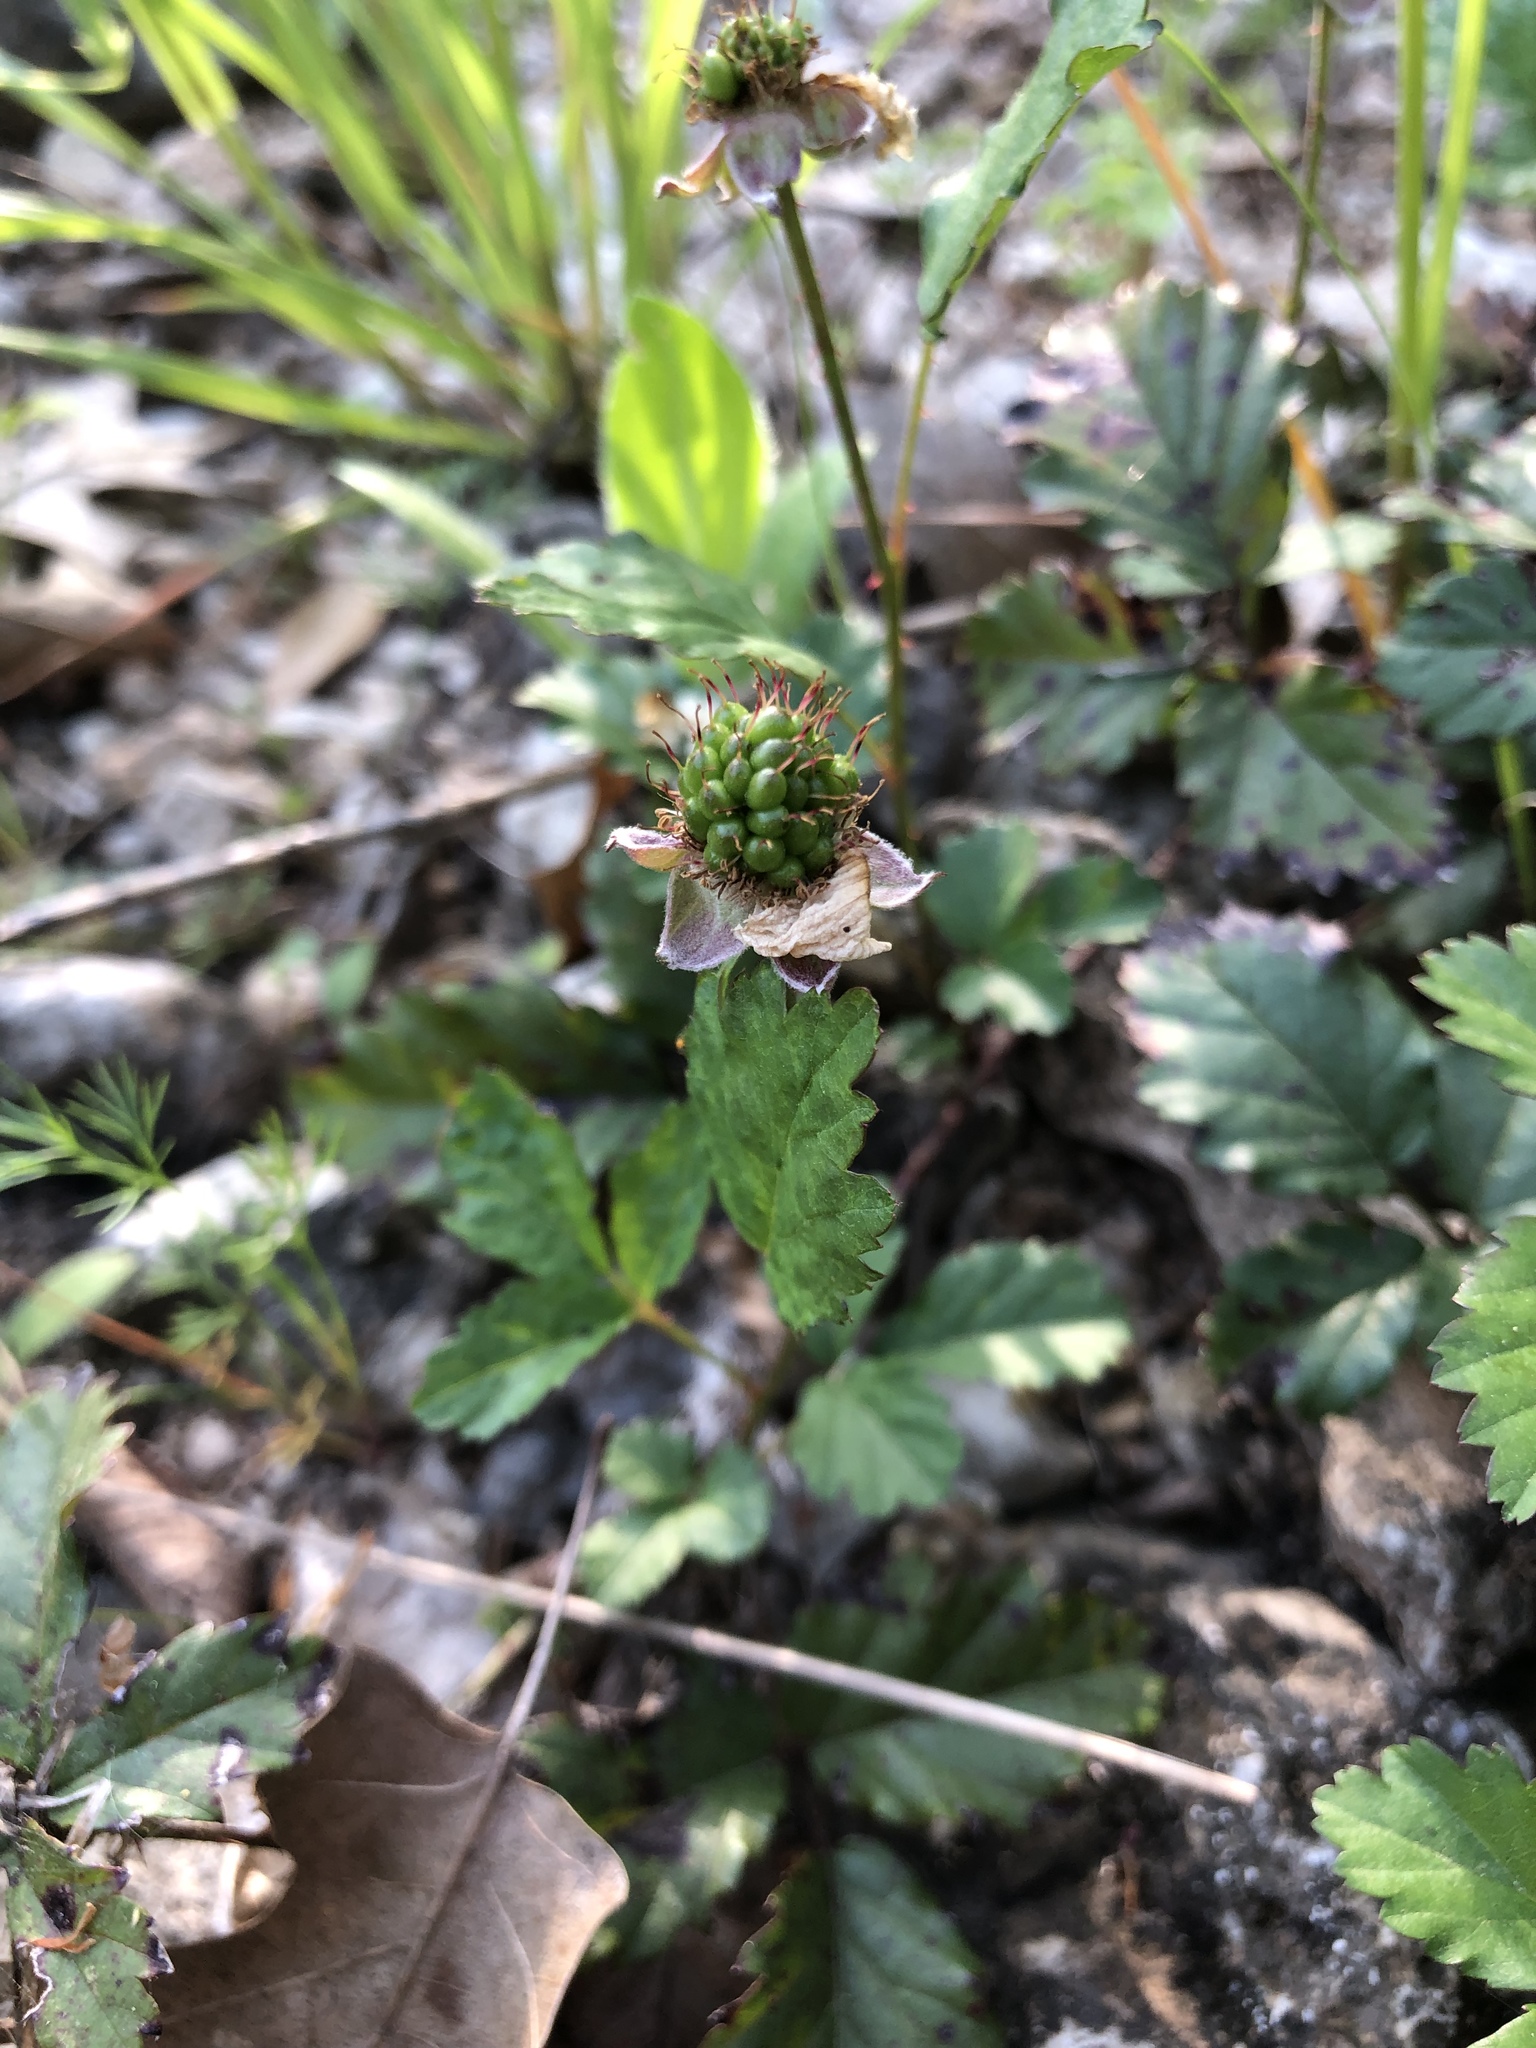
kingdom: Plantae
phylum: Tracheophyta
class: Magnoliopsida
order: Rosales
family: Rosaceae
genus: Rubus
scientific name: Rubus trivialis
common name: Southern dewberry
